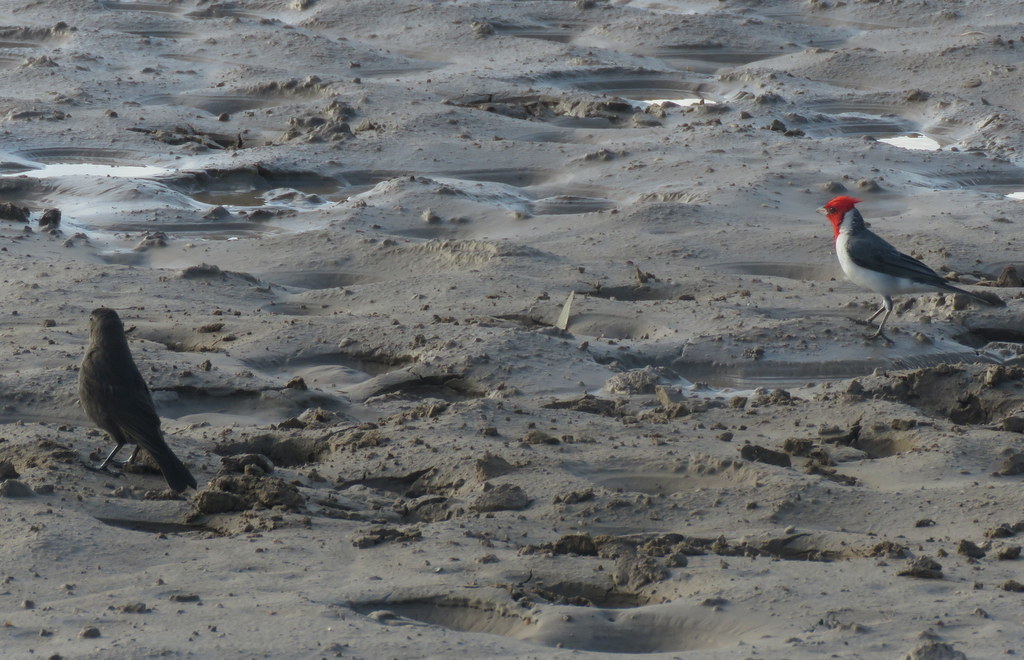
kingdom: Animalia
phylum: Chordata
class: Aves
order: Passeriformes
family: Thraupidae
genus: Paroaria
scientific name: Paroaria coronata
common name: Red-crested cardinal
